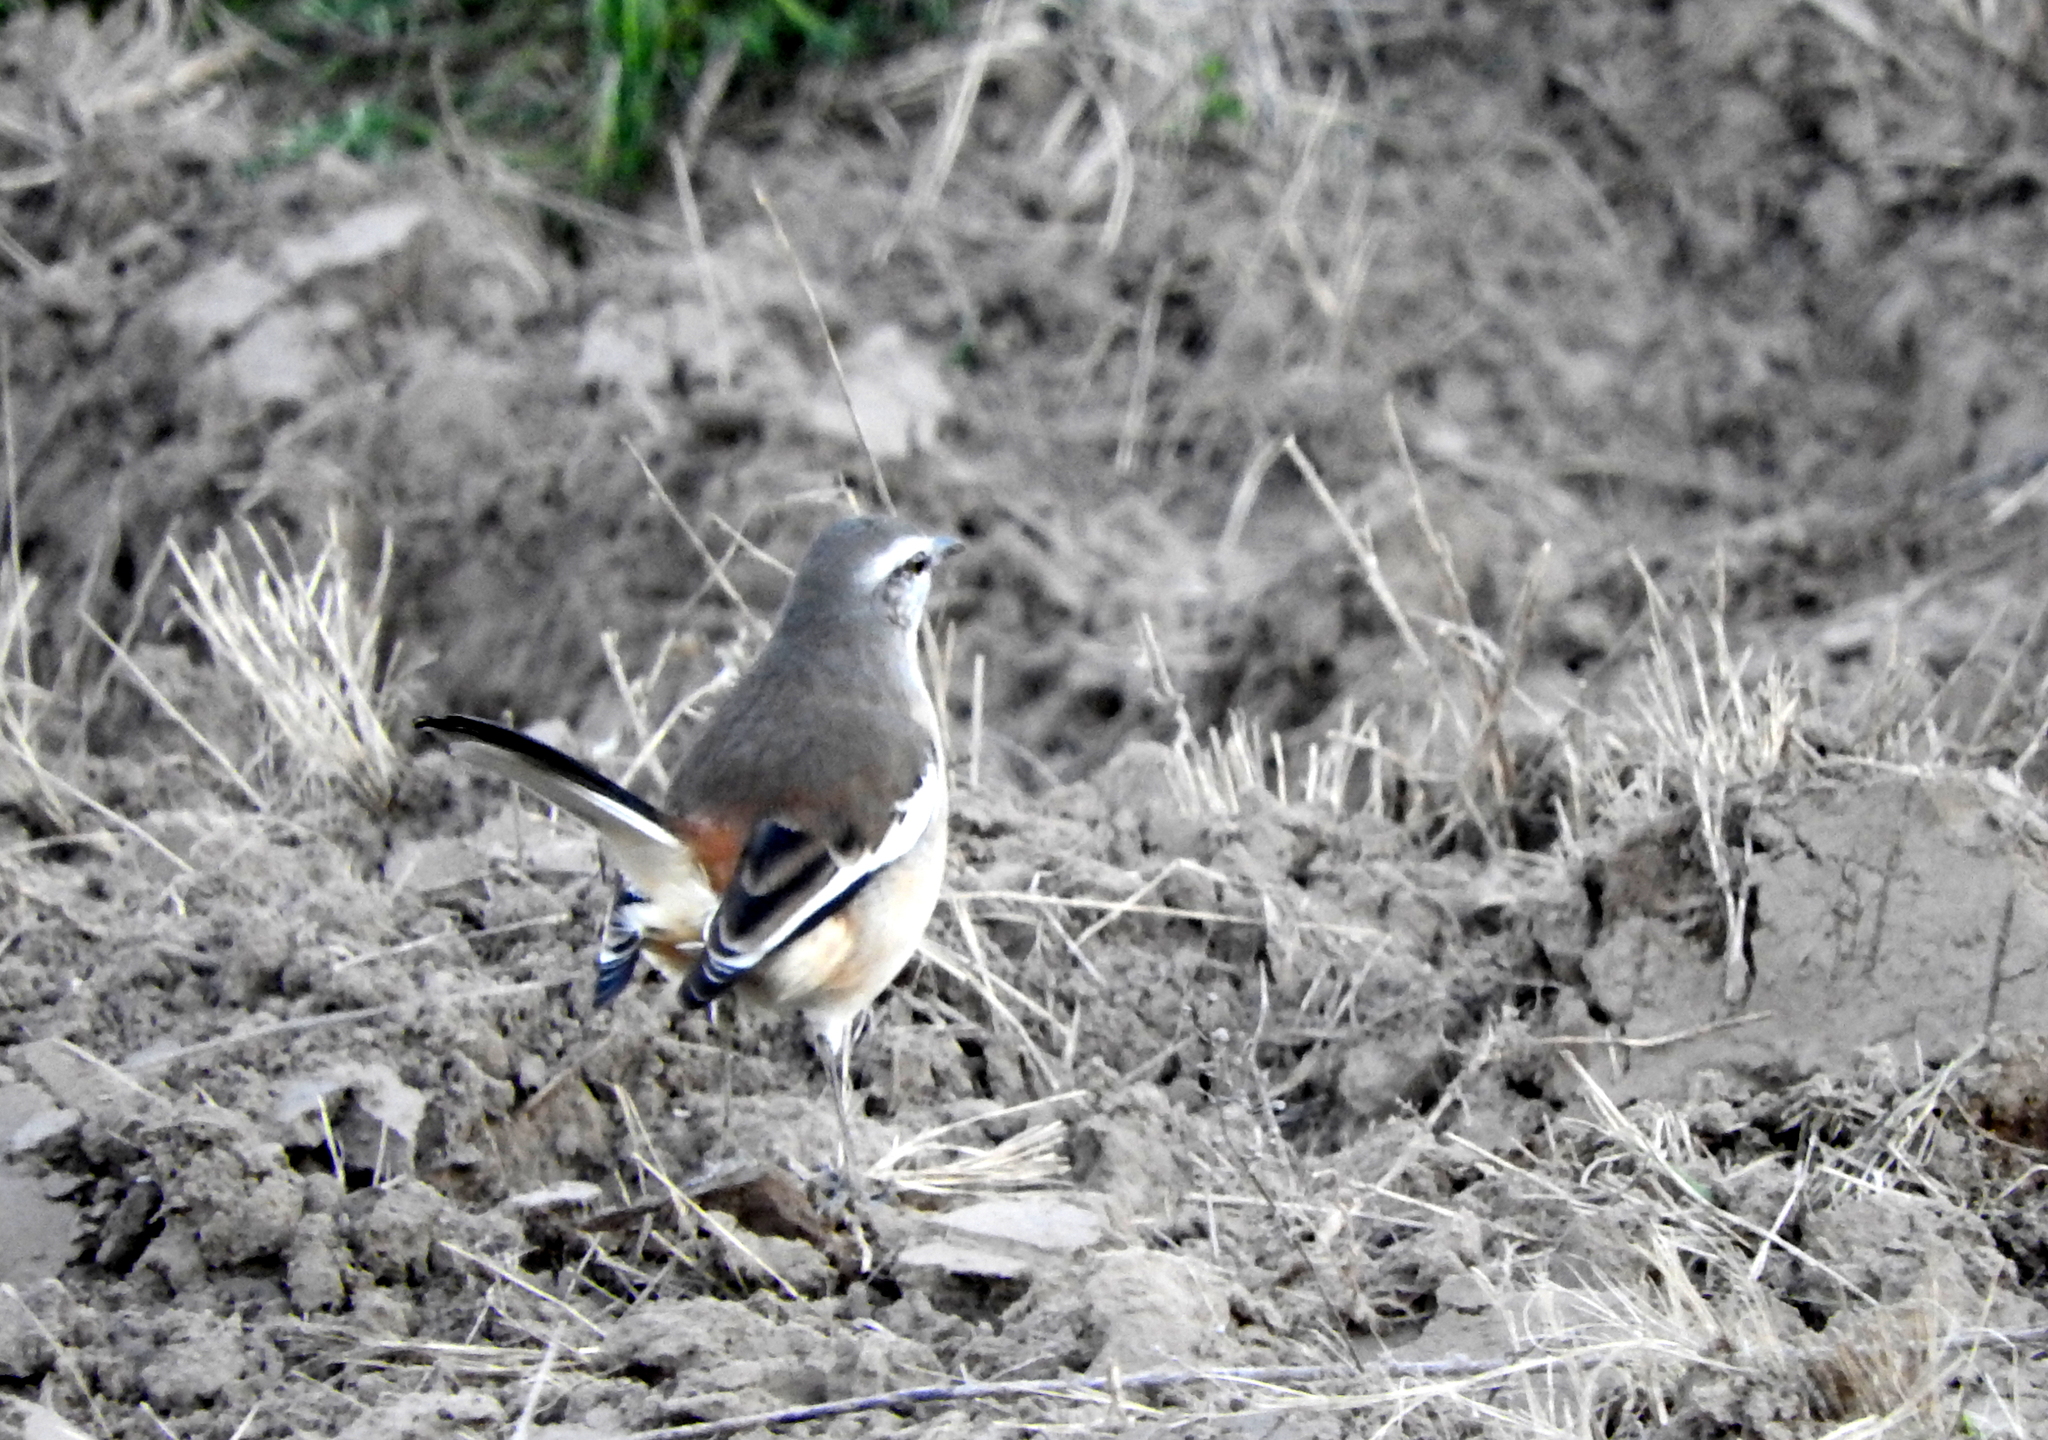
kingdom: Animalia
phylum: Chordata
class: Aves
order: Passeriformes
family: Mimidae
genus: Mimus
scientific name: Mimus triurus
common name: White-banded mockingbird
